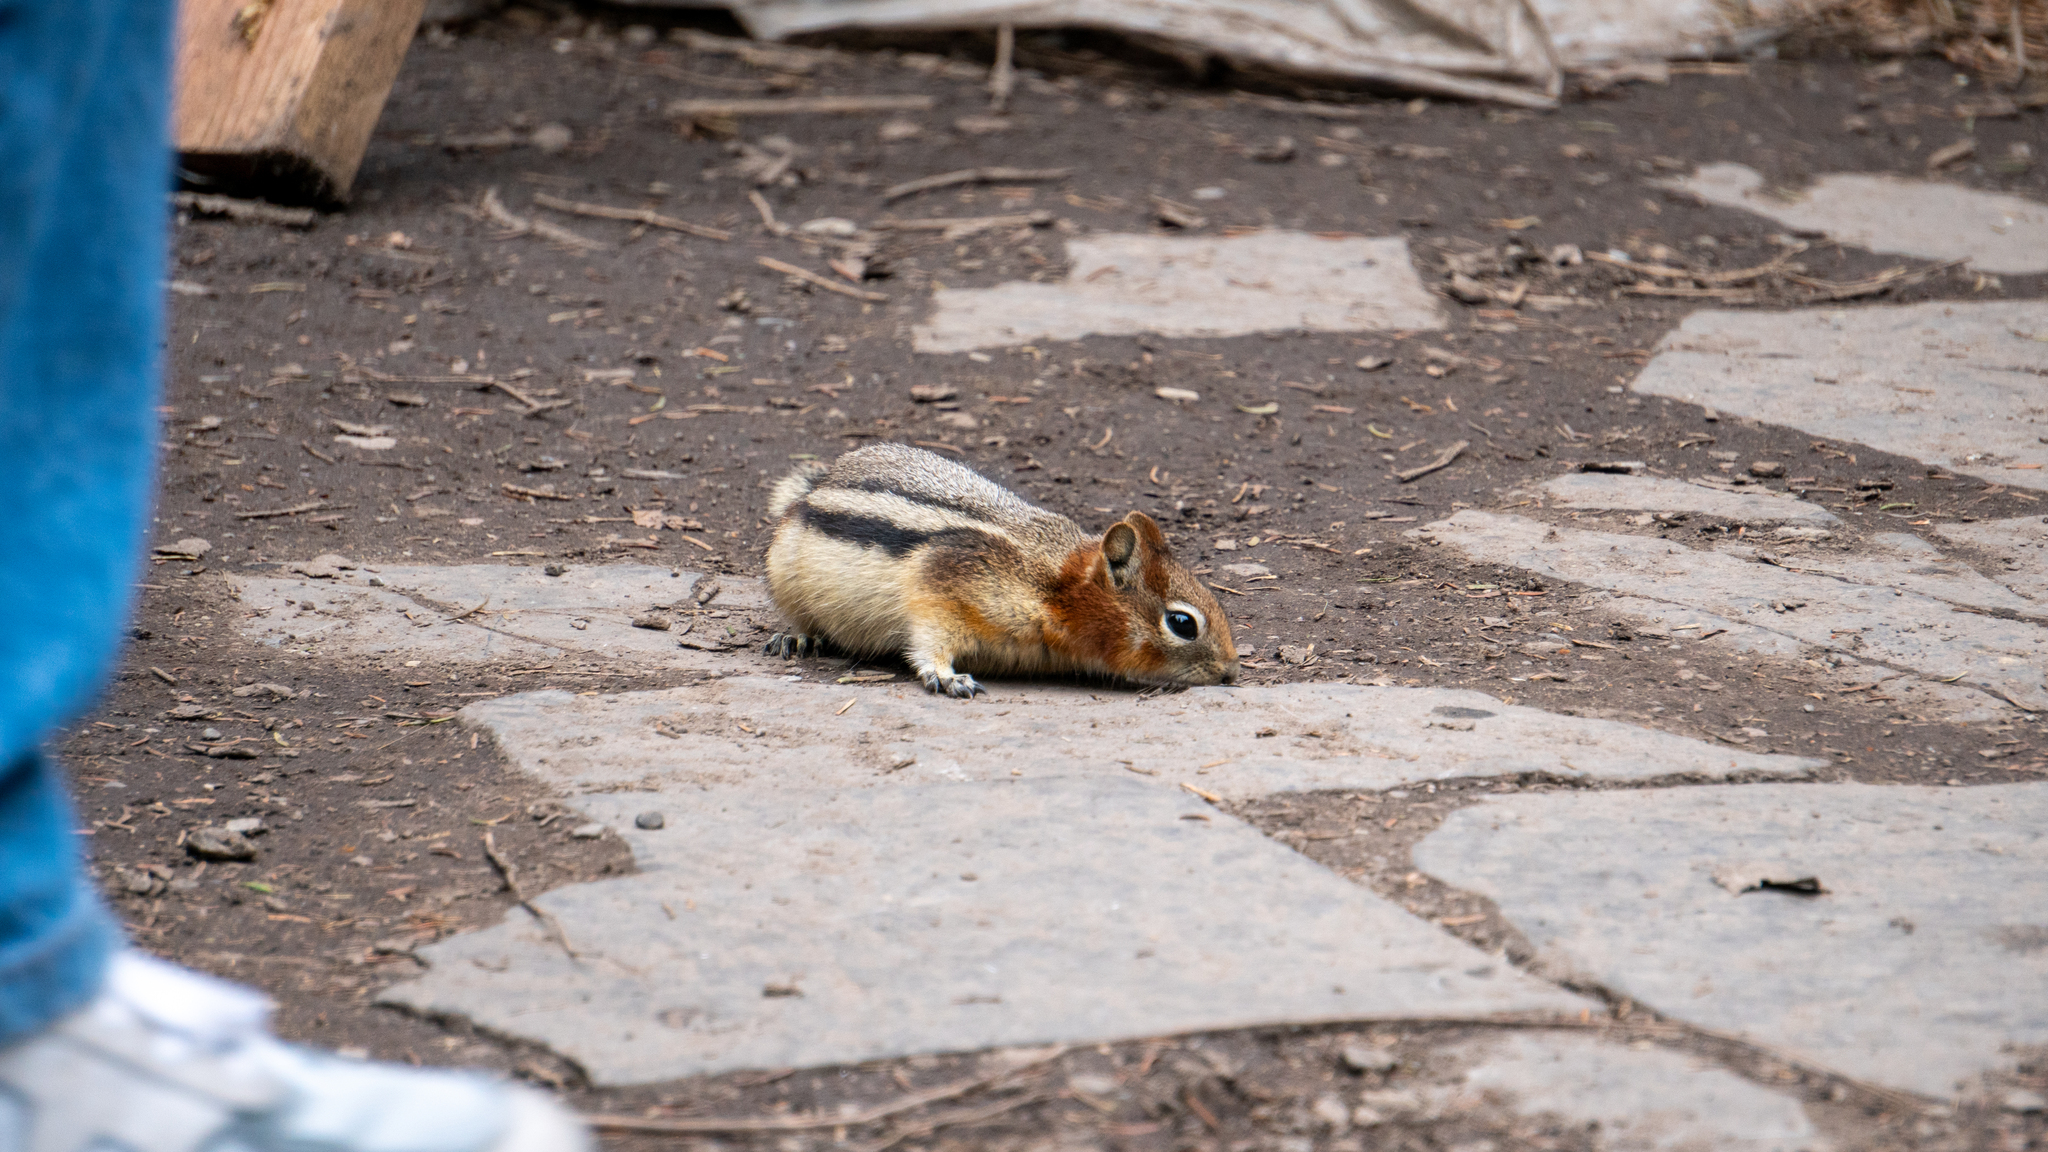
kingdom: Animalia
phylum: Chordata
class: Mammalia
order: Rodentia
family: Sciuridae
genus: Callospermophilus
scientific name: Callospermophilus lateralis
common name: Golden-mantled ground squirrel
